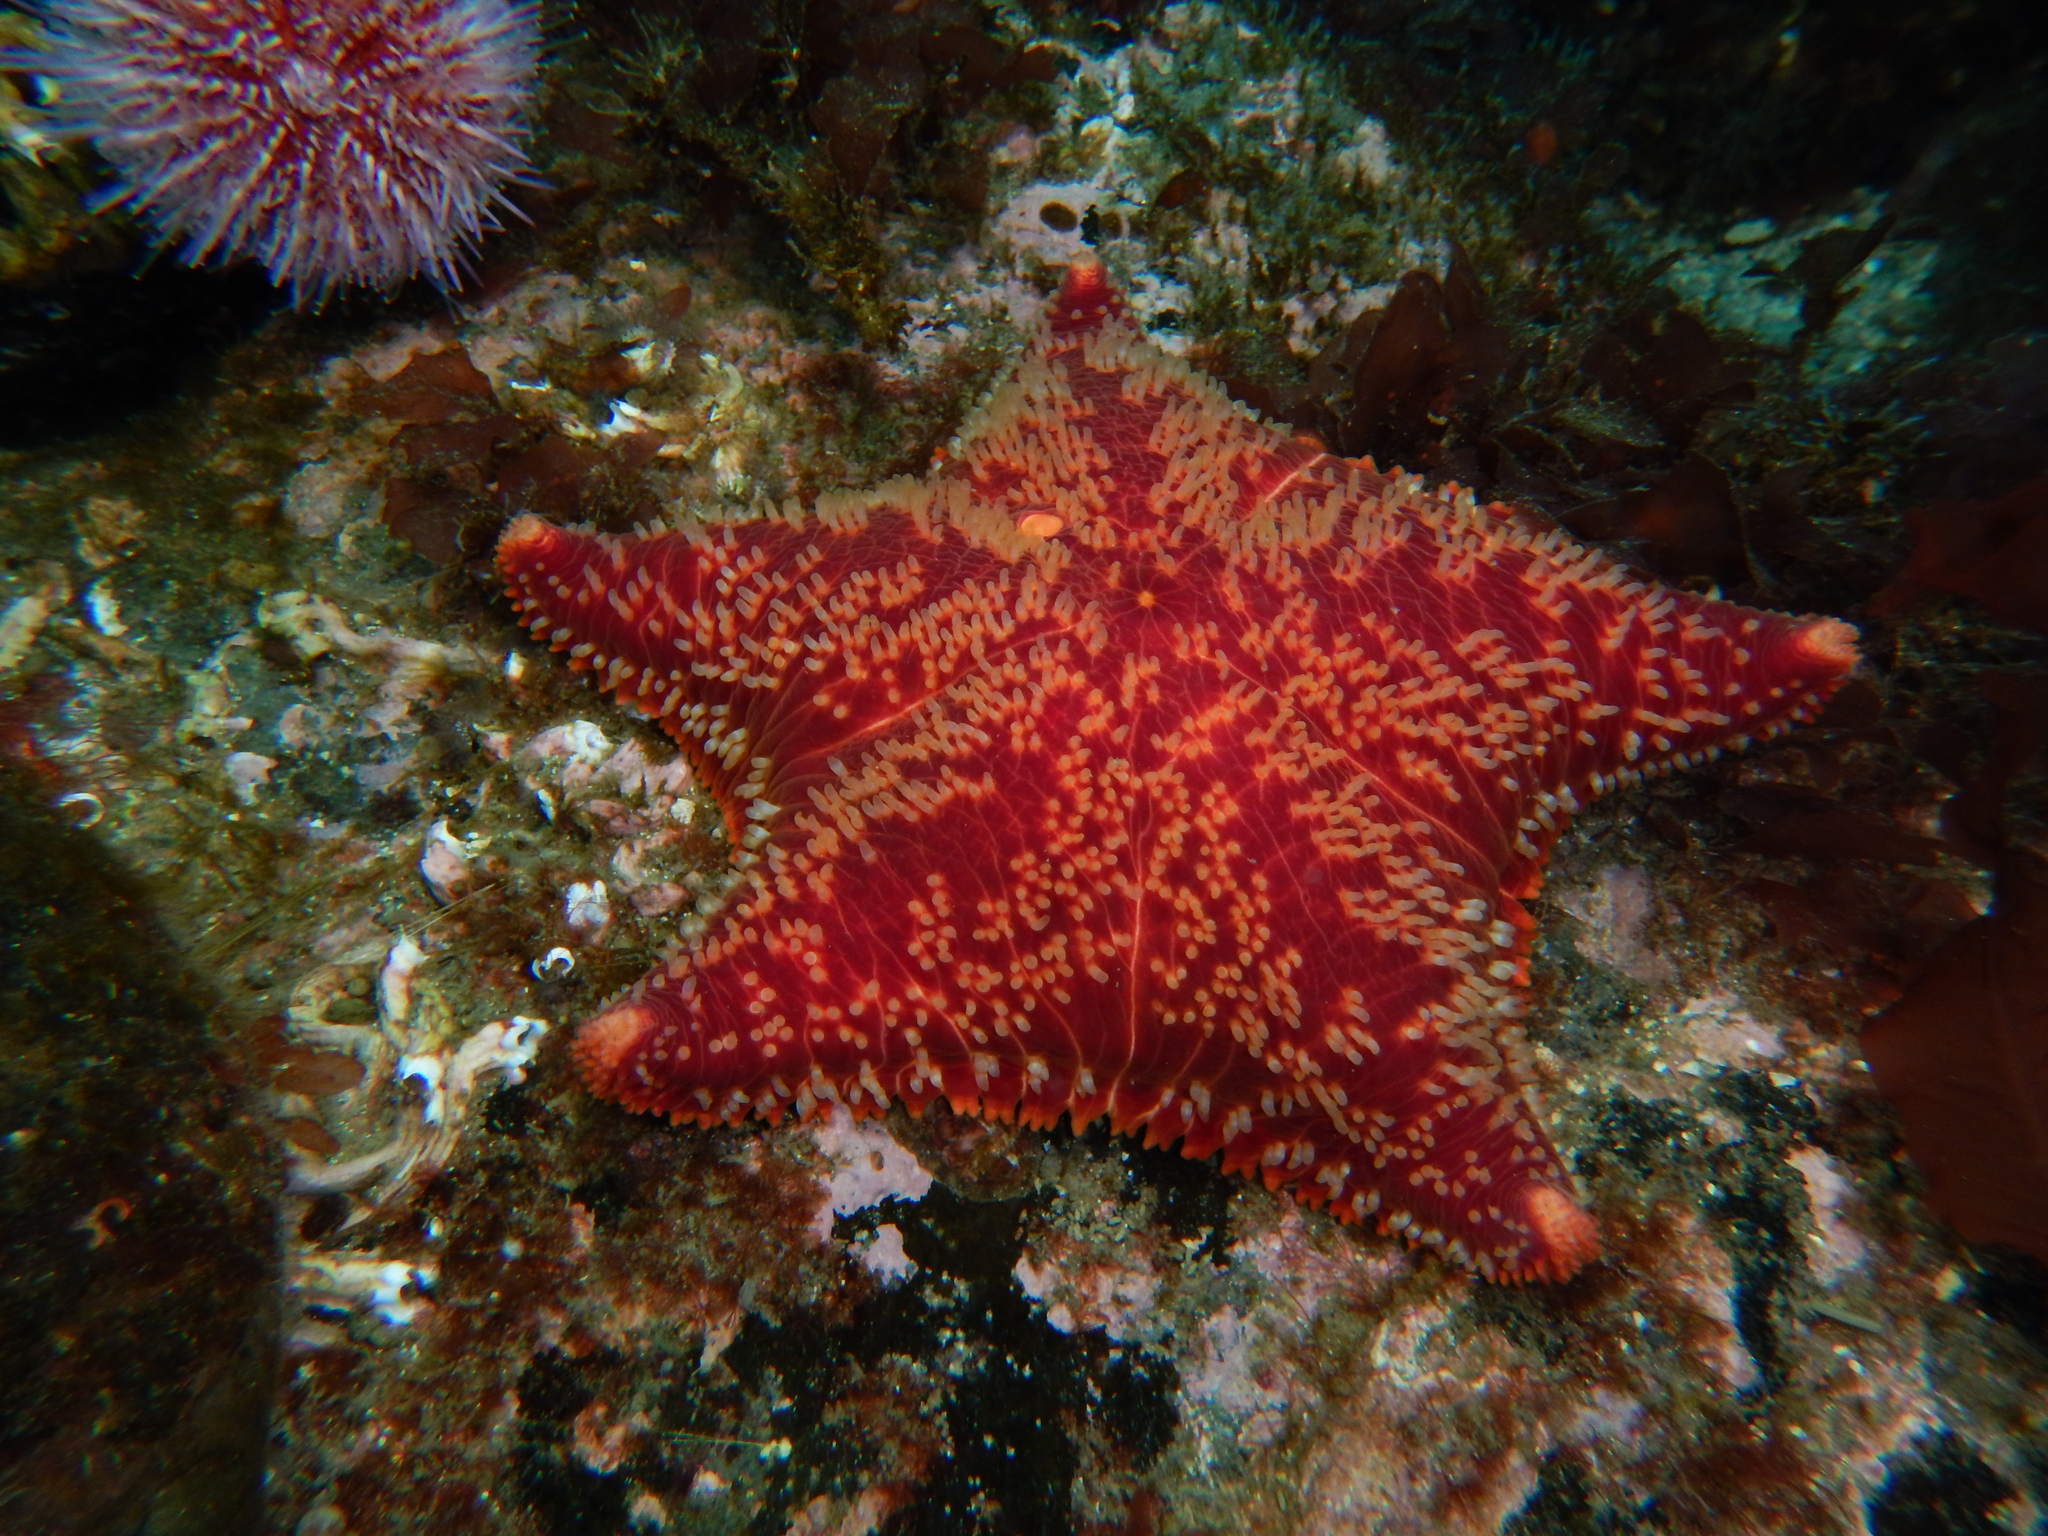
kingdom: Animalia
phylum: Echinodermata
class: Asteroidea
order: Valvatida
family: Poraniidae
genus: Porania
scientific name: Porania pulvillus
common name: Red cushion stat
